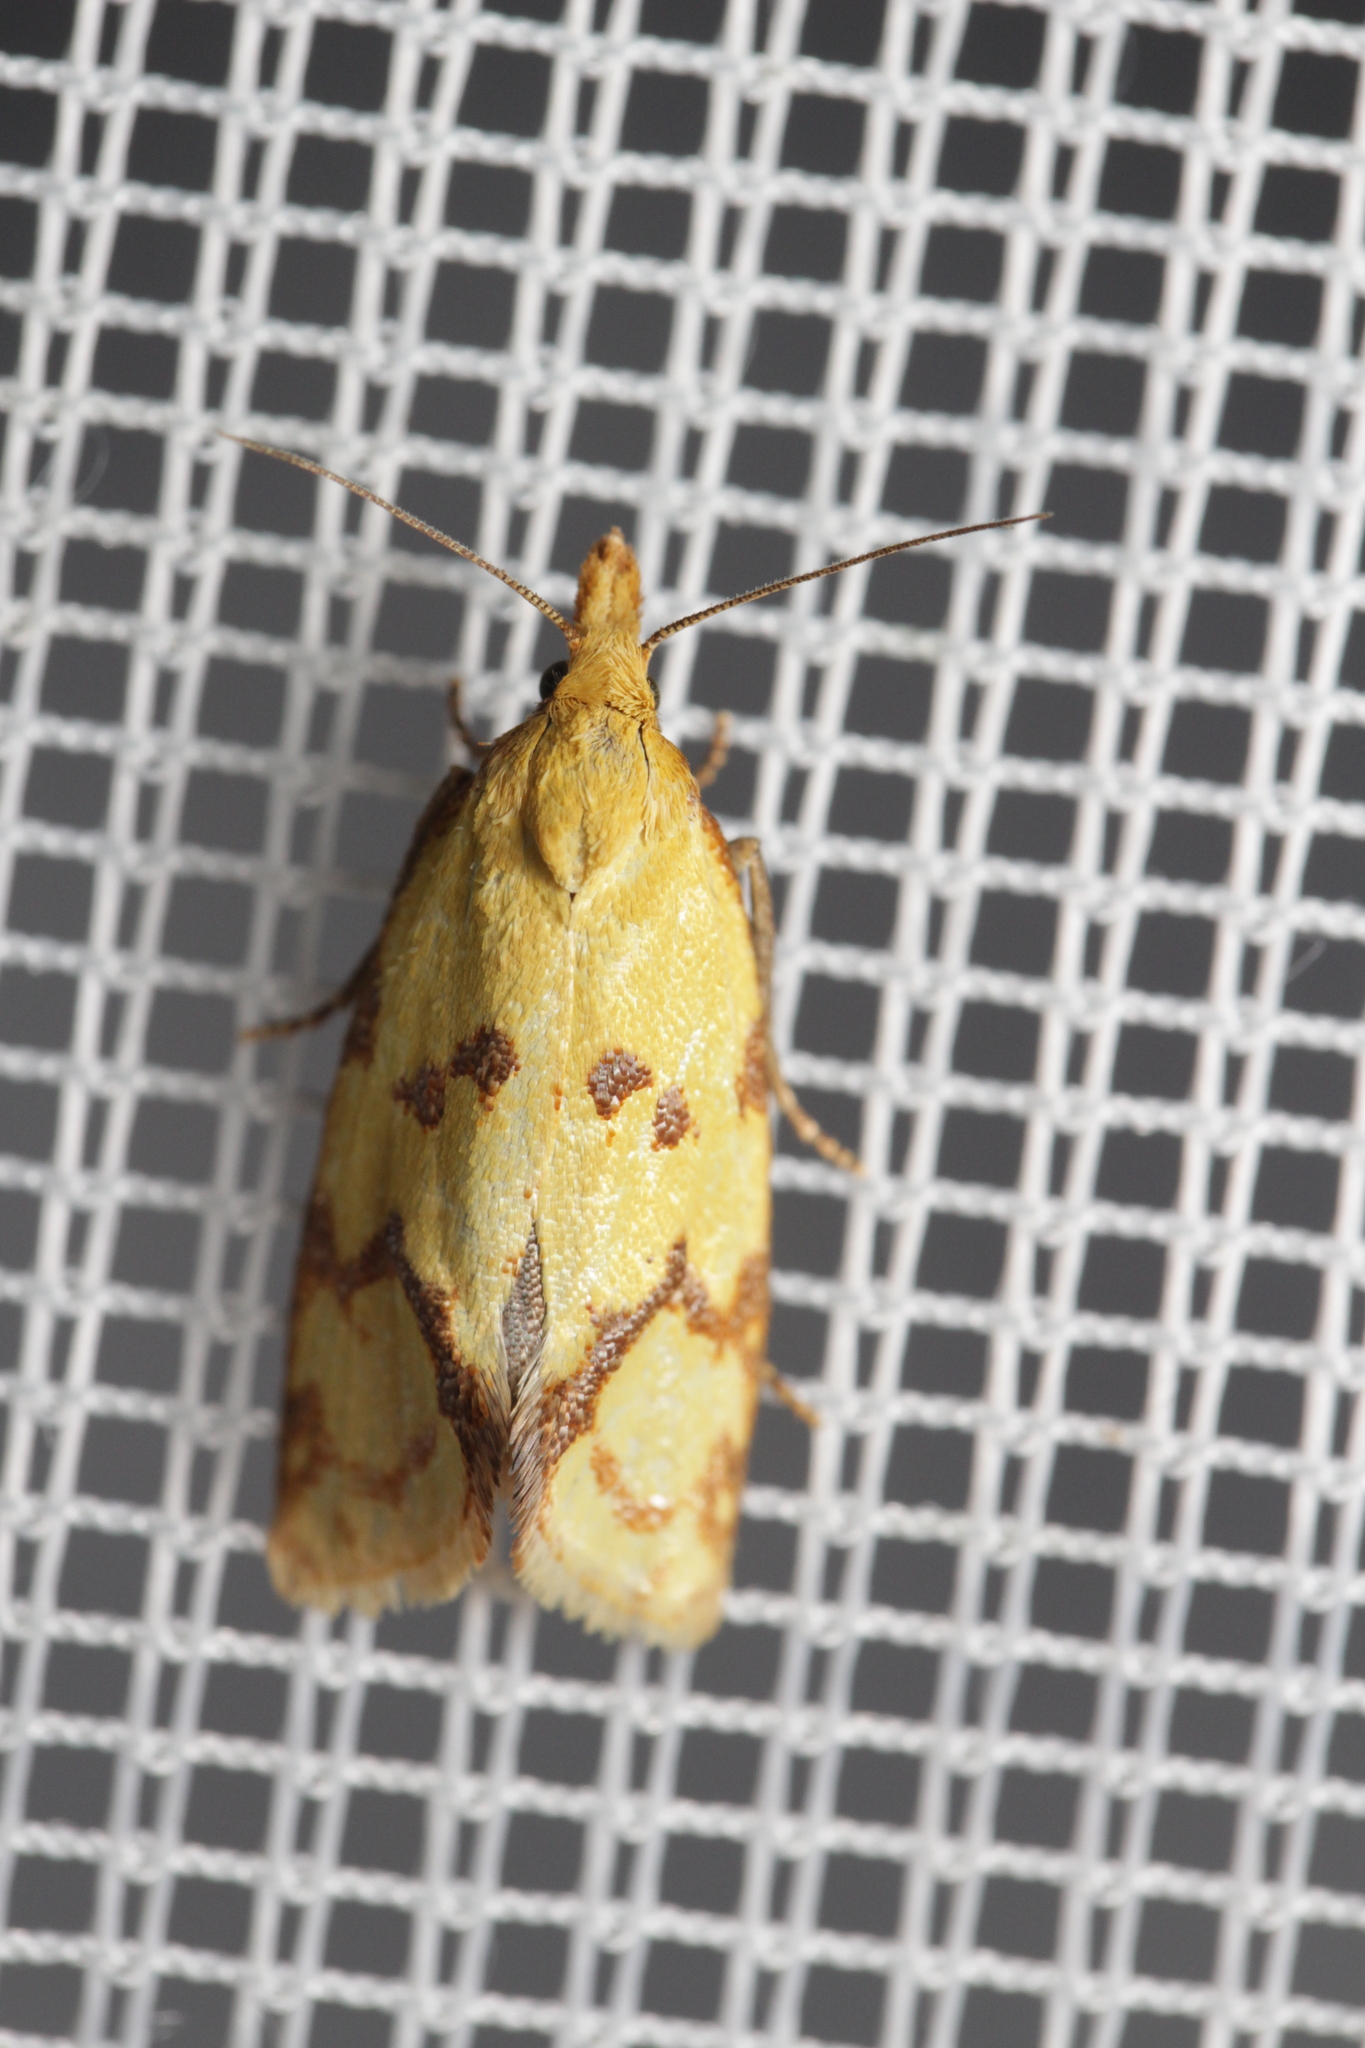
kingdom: Animalia
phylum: Arthropoda
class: Insecta
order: Lepidoptera
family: Tortricidae
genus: Agapeta
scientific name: Agapeta hamana
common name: Common yellow conch
